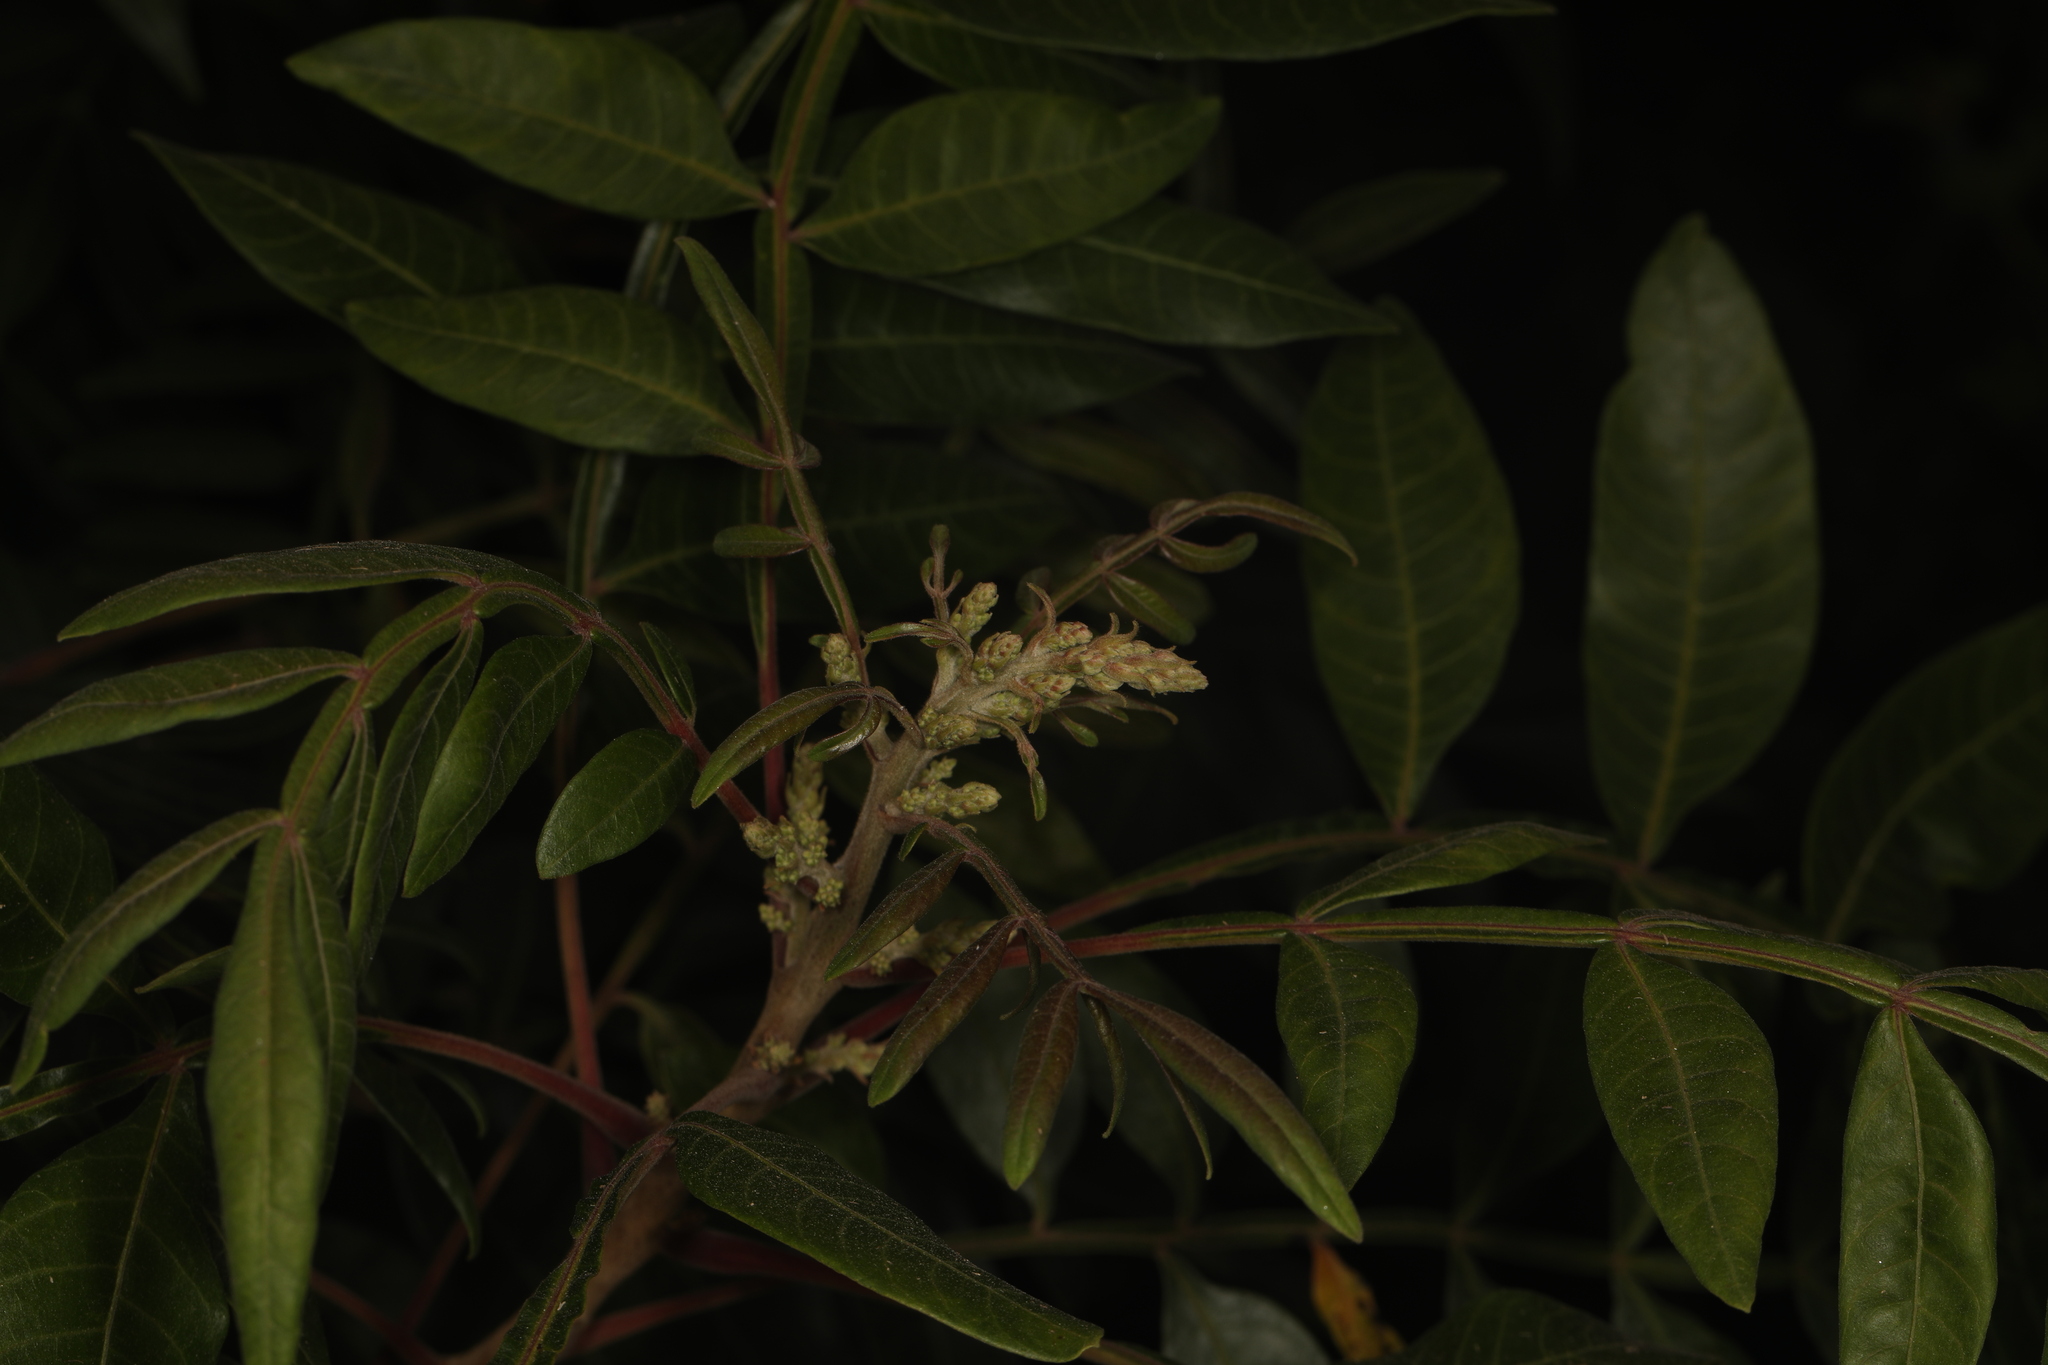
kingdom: Plantae
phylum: Tracheophyta
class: Magnoliopsida
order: Sapindales
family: Anacardiaceae
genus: Rhus
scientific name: Rhus copallina
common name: Shining sumac
